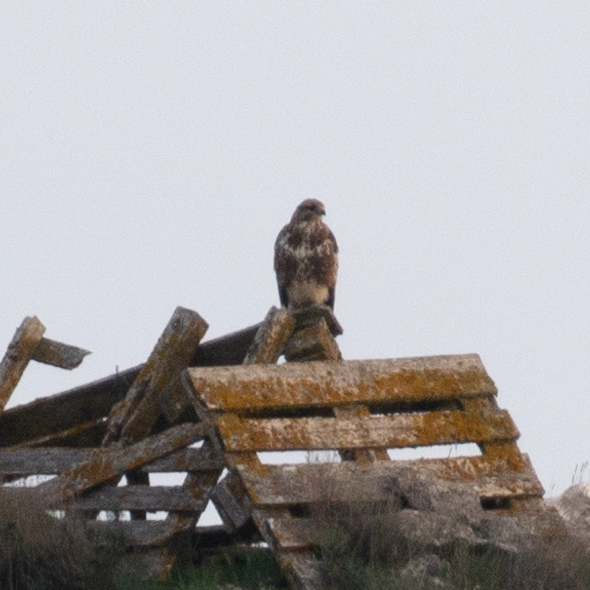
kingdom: Animalia
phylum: Chordata
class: Aves
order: Accipitriformes
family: Accipitridae
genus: Buteo
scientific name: Buteo buteo
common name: Common buzzard
